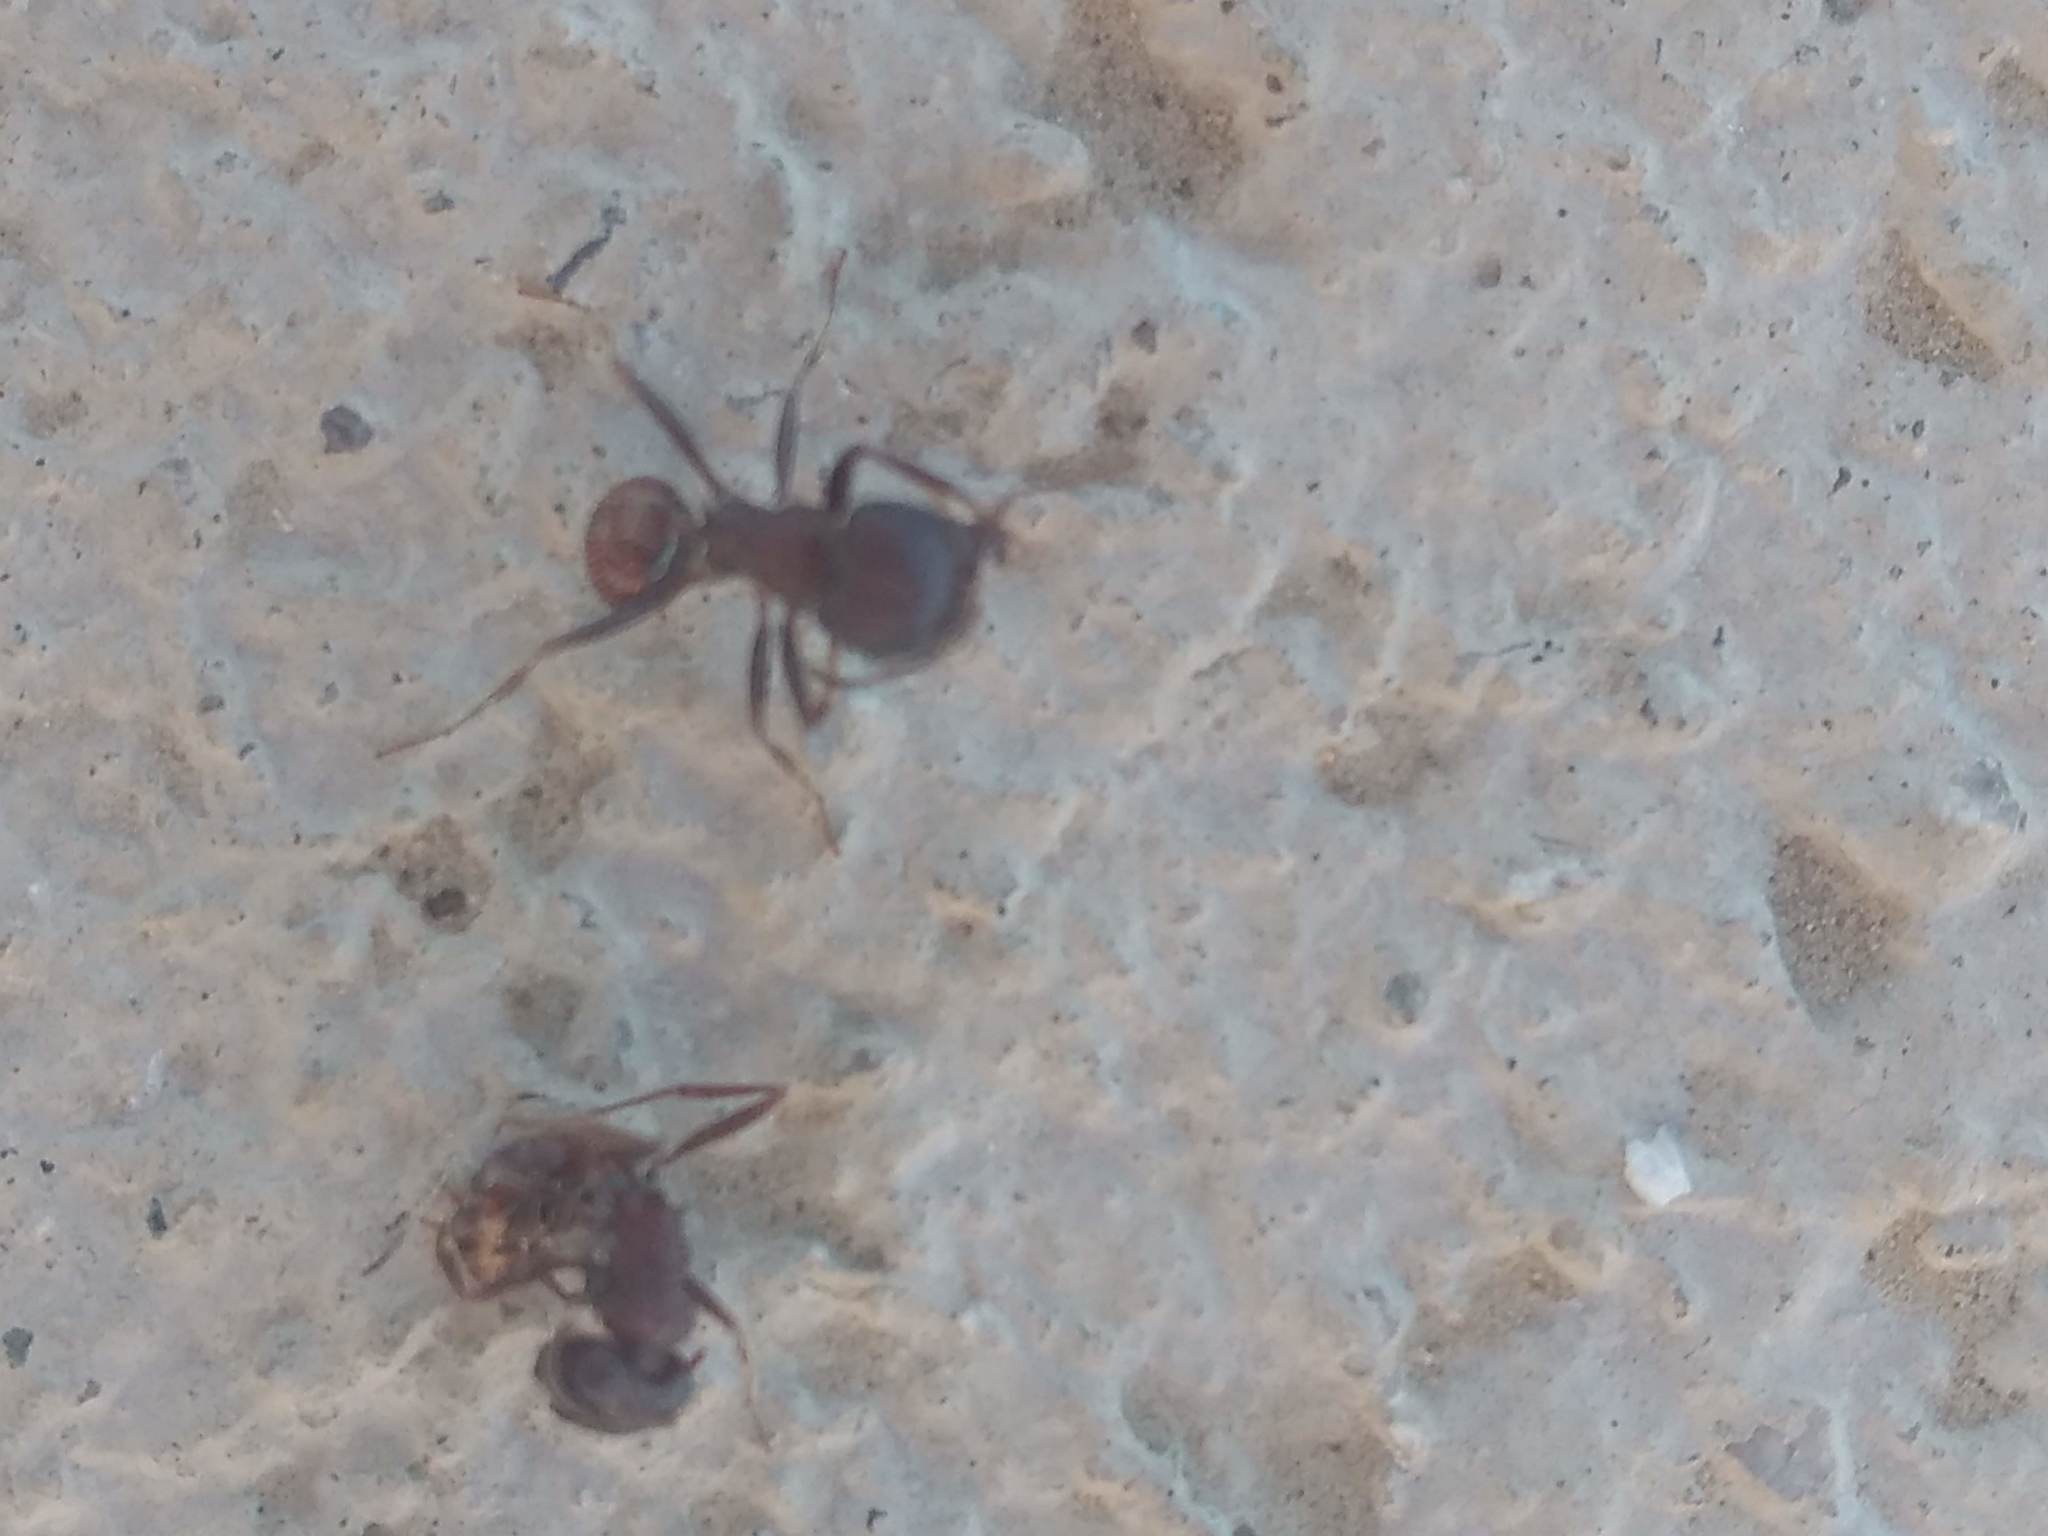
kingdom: Animalia
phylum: Arthropoda
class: Insecta
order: Hymenoptera
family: Formicidae
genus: Pogonomyrmex
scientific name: Pogonomyrmex rugosus
